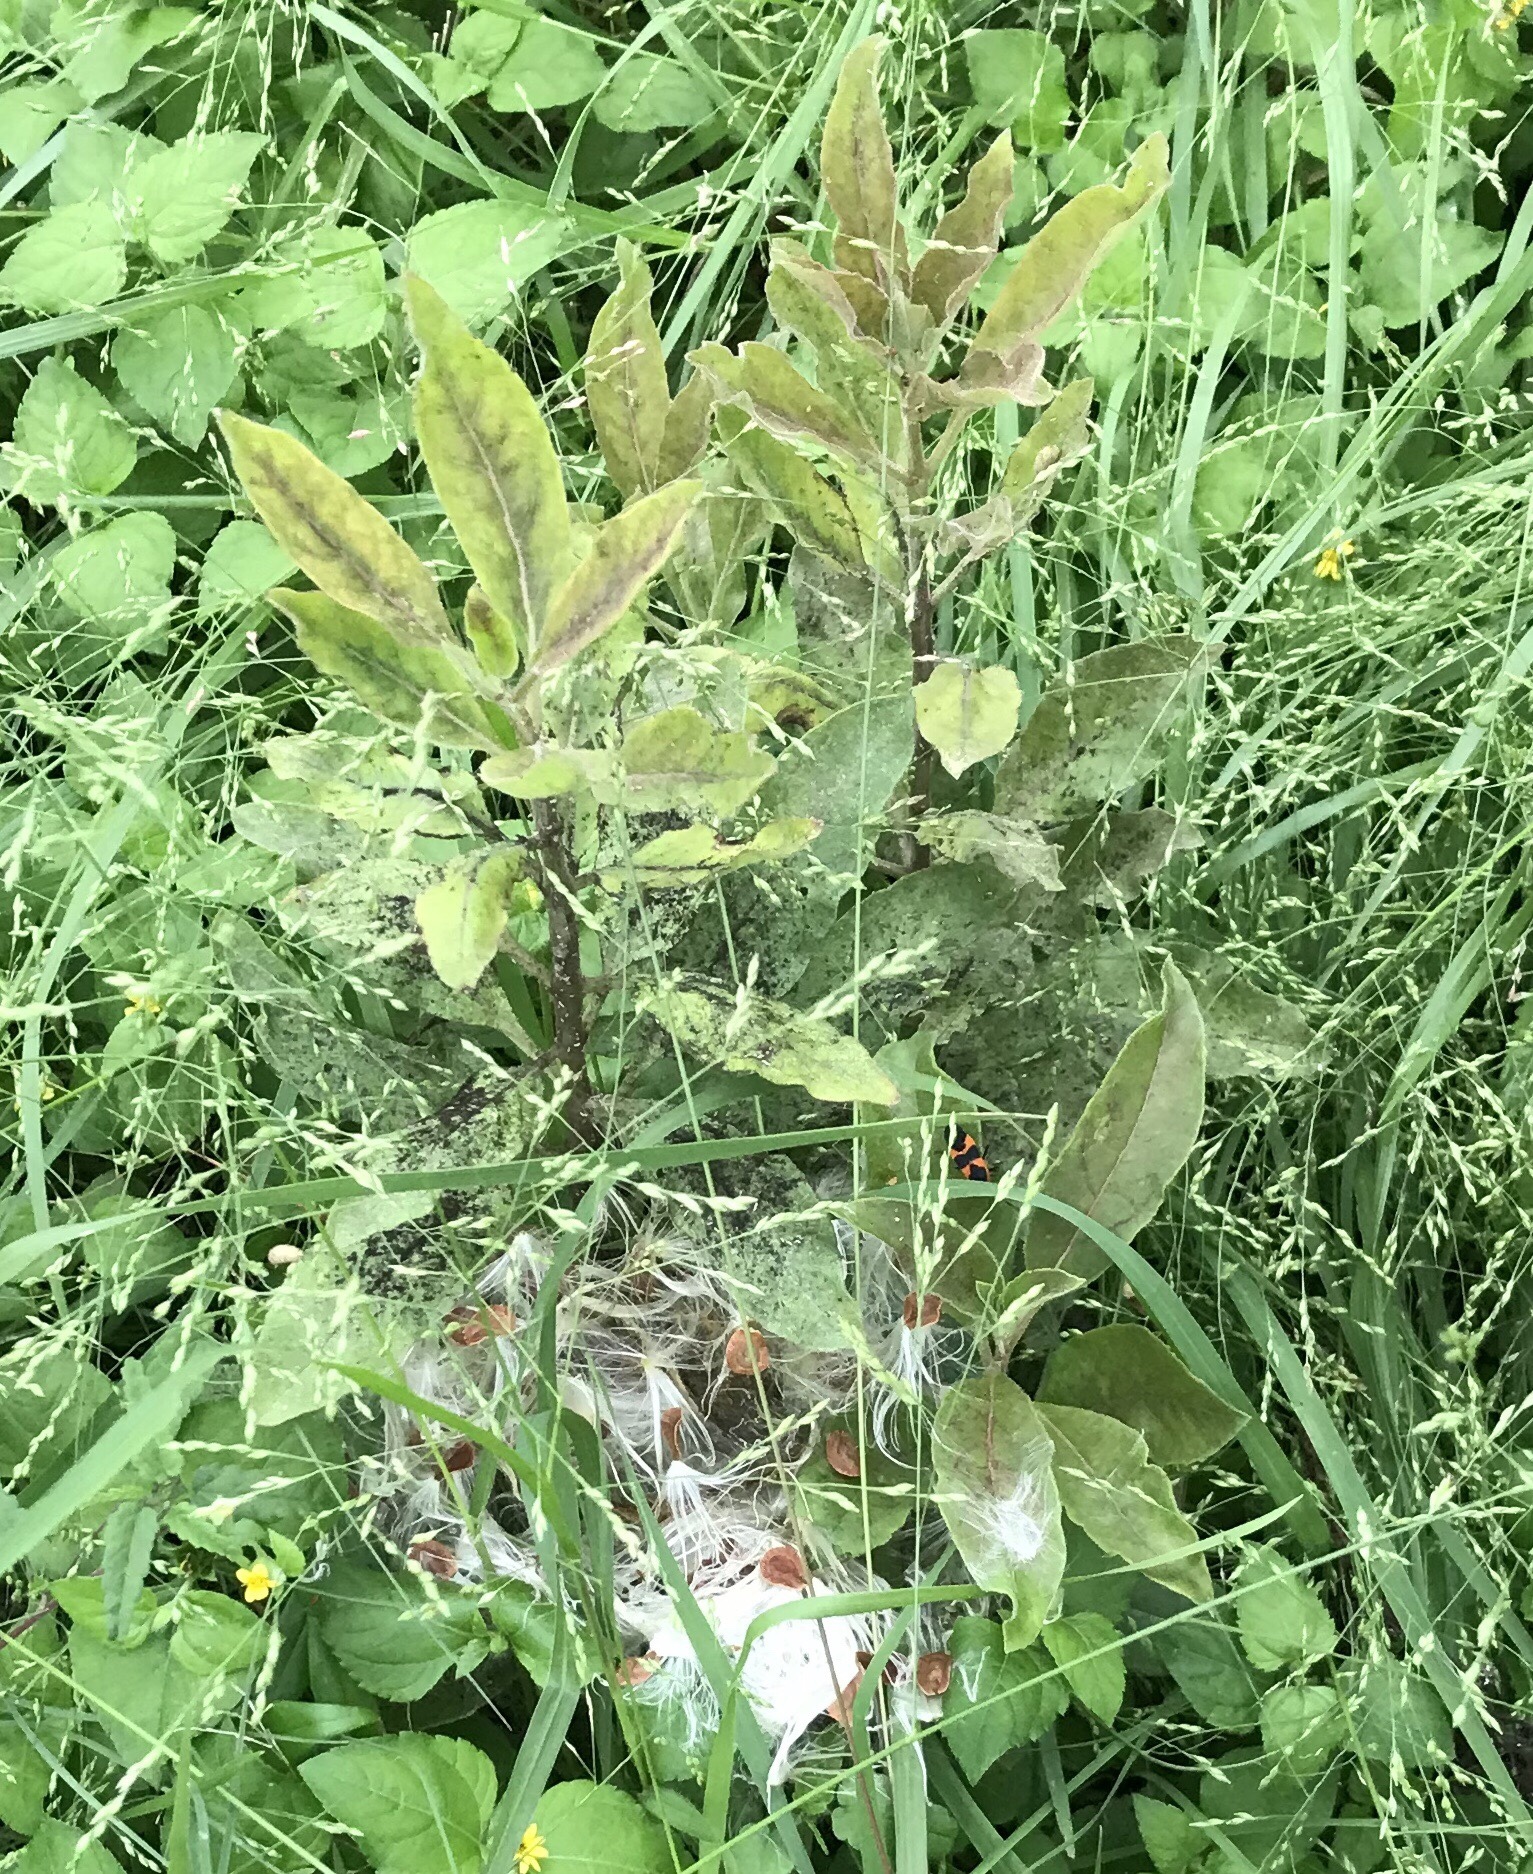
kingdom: Plantae
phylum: Tracheophyta
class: Magnoliopsida
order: Gentianales
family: Apocynaceae
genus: Asclepias
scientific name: Asclepias oenotheroides
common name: Zizotes milkweed
